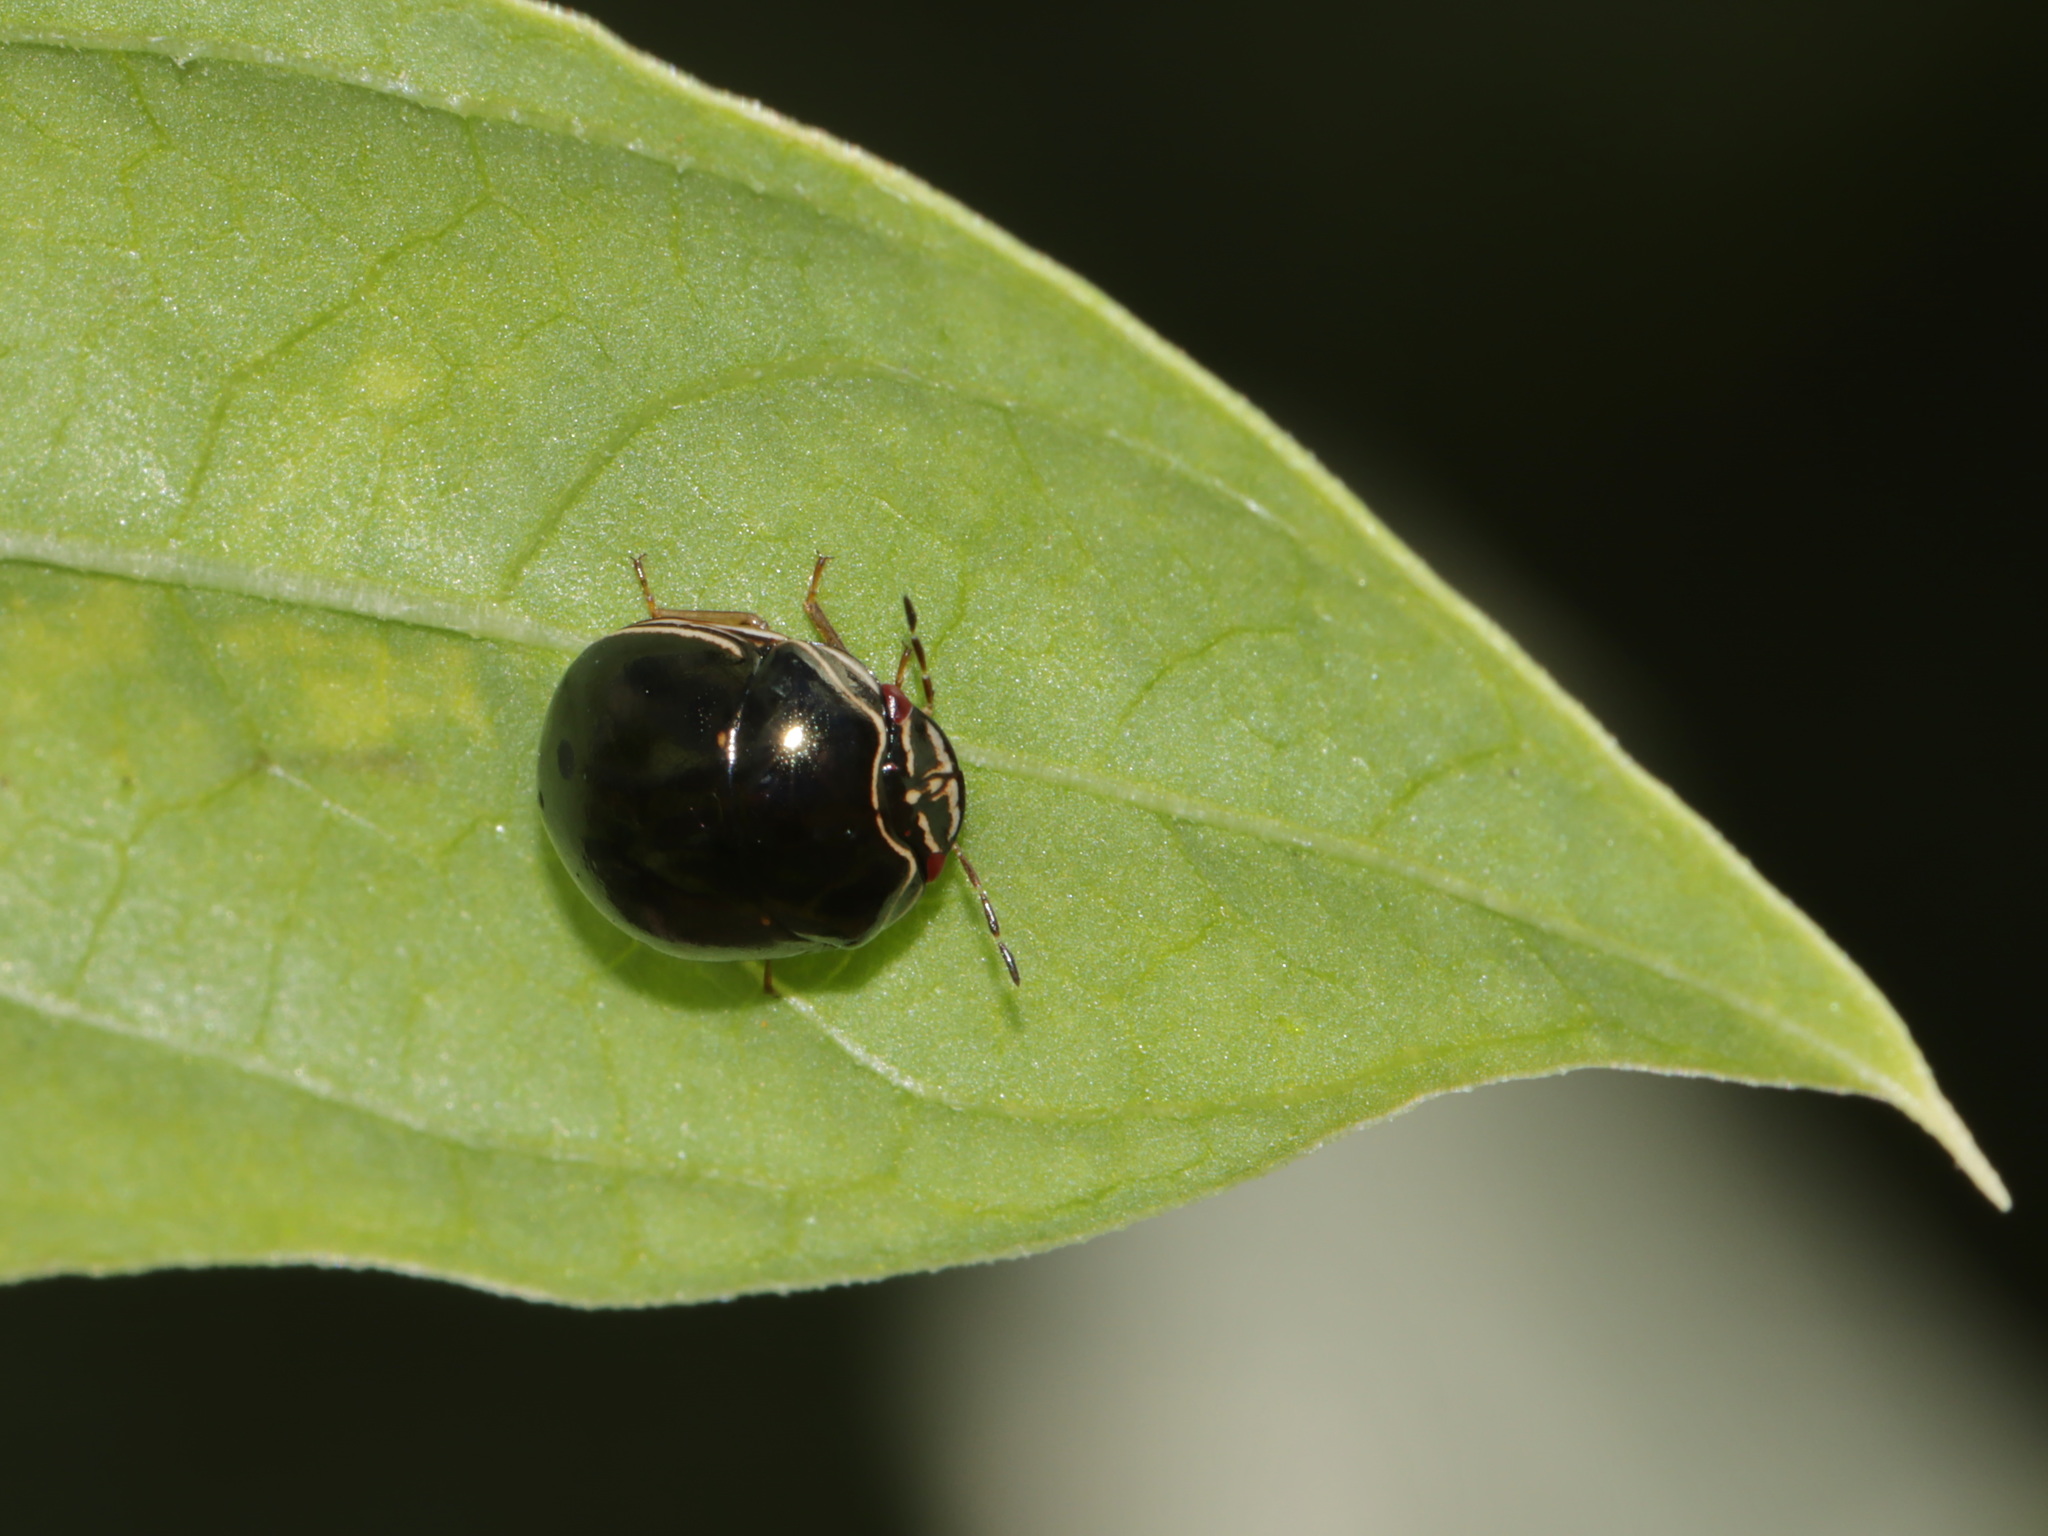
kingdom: Animalia
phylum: Arthropoda
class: Insecta
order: Hemiptera
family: Plataspidae
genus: Brachyplatys
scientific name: Brachyplatys subaeneus
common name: Black bean bug
